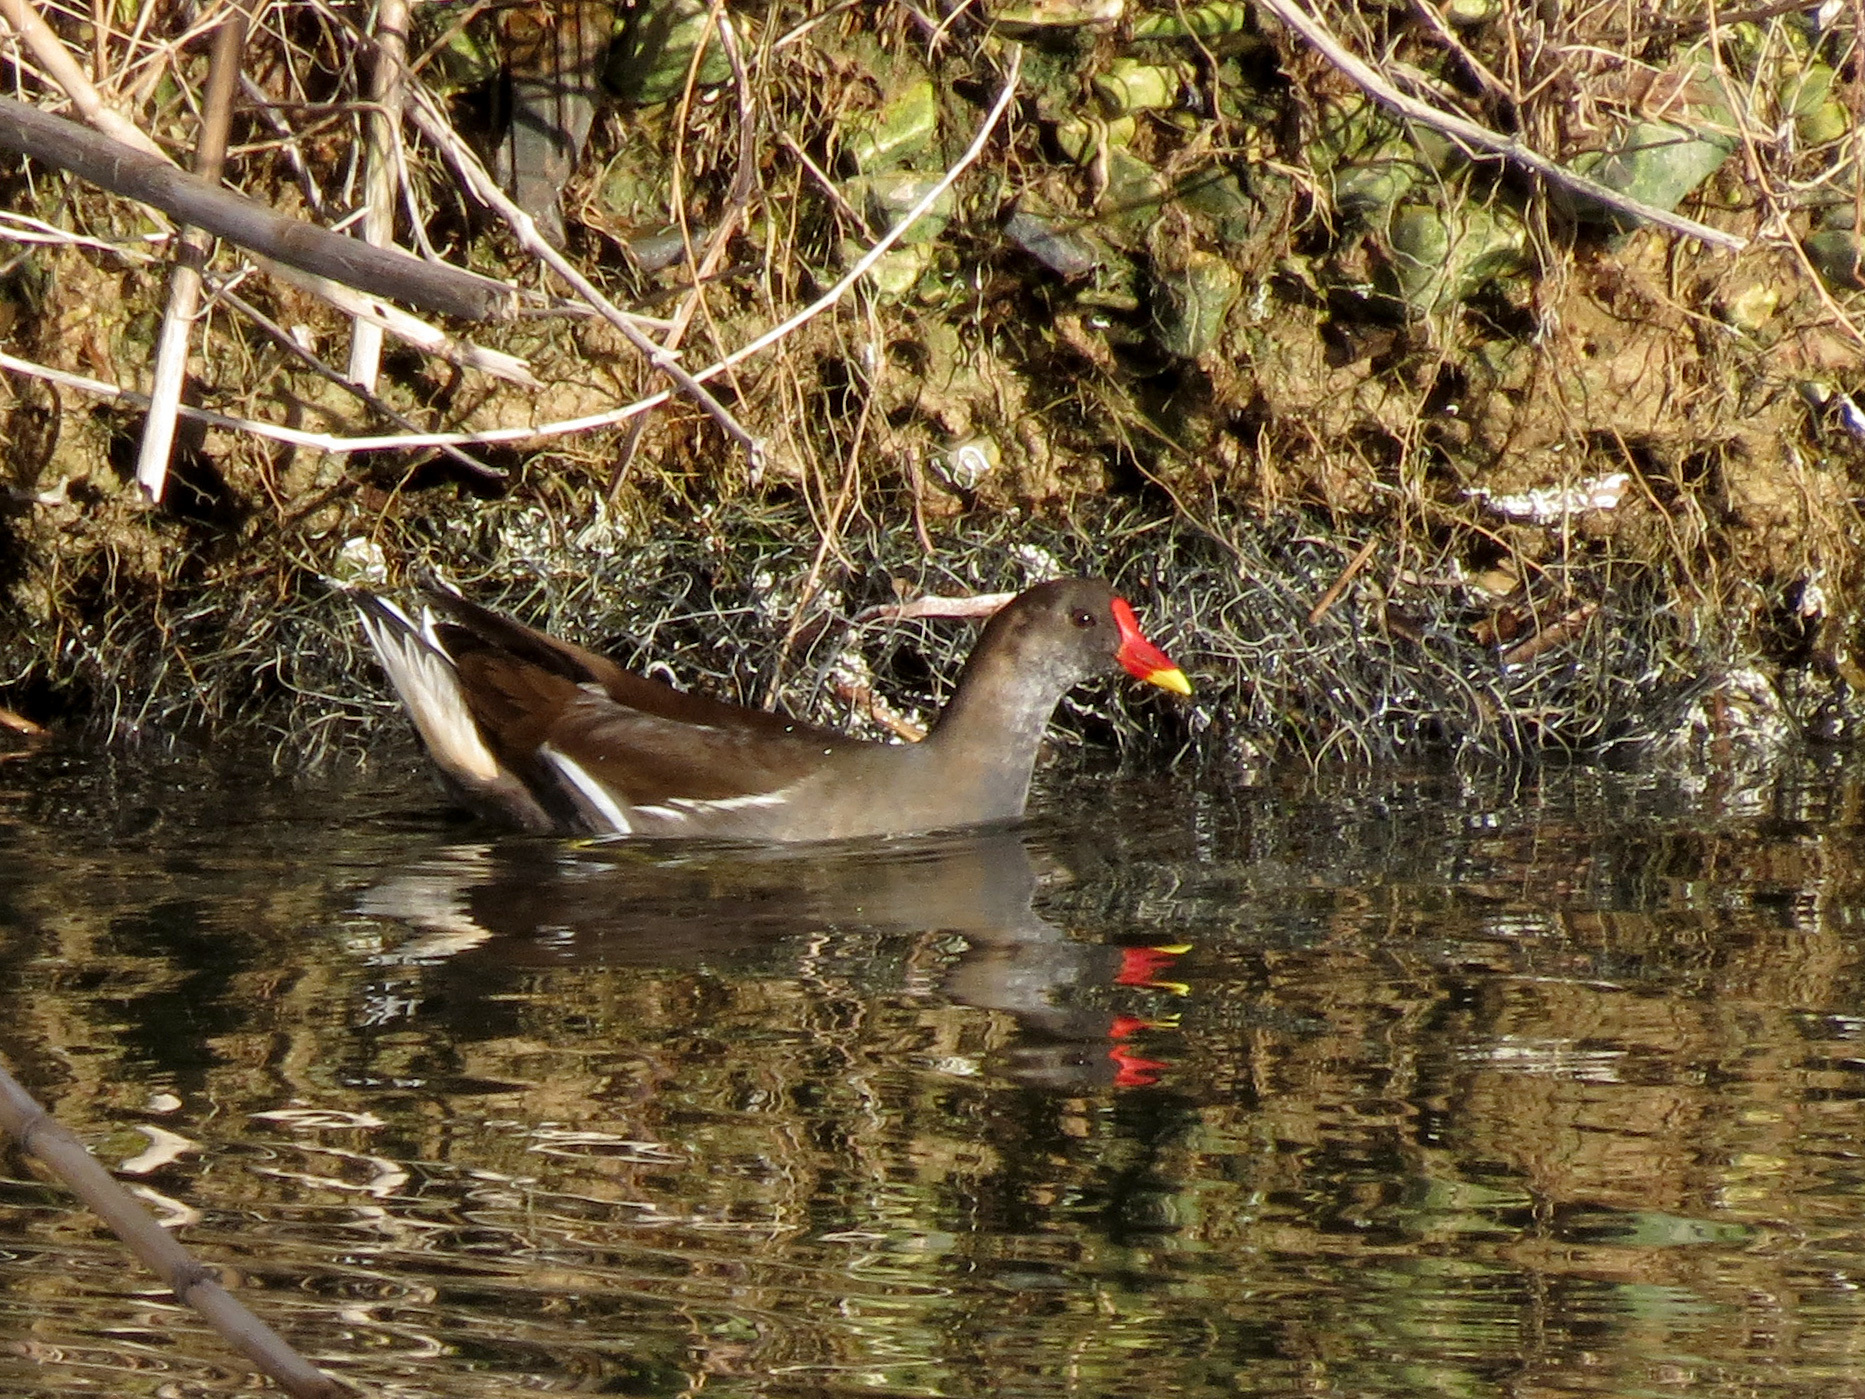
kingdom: Animalia
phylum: Chordata
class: Aves
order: Gruiformes
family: Rallidae
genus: Gallinula
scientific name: Gallinula chloropus
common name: Common moorhen
